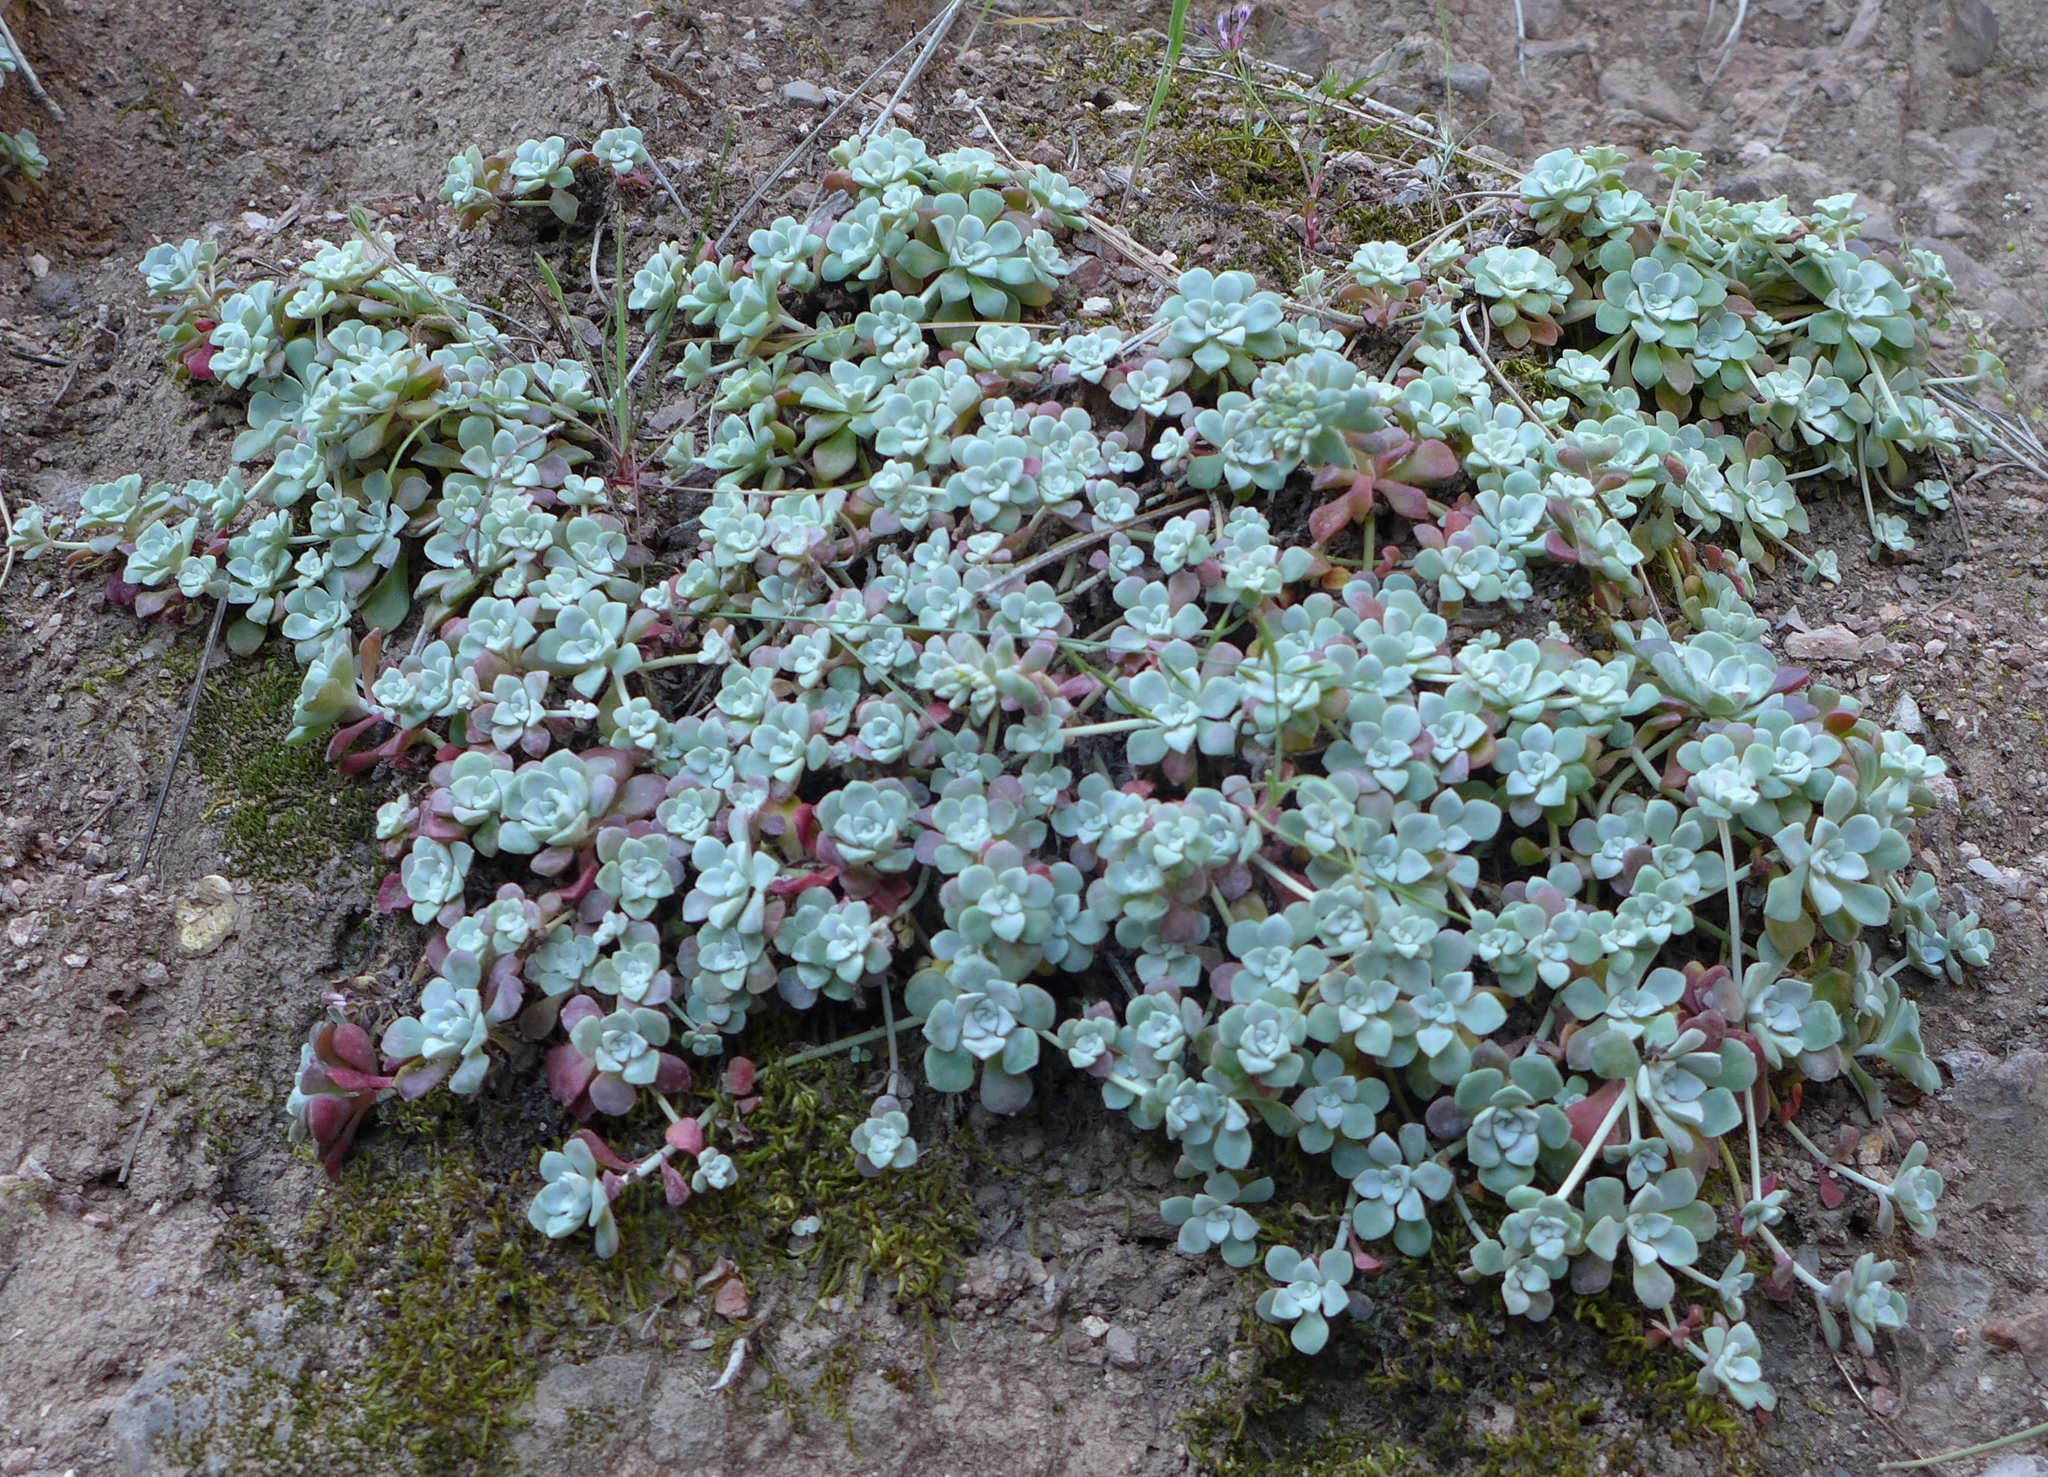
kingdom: Plantae
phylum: Tracheophyta
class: Magnoliopsida
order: Saxifragales
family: Crassulaceae
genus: Sedum
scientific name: Sedum spathulifolium
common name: Colorado stonecrop
